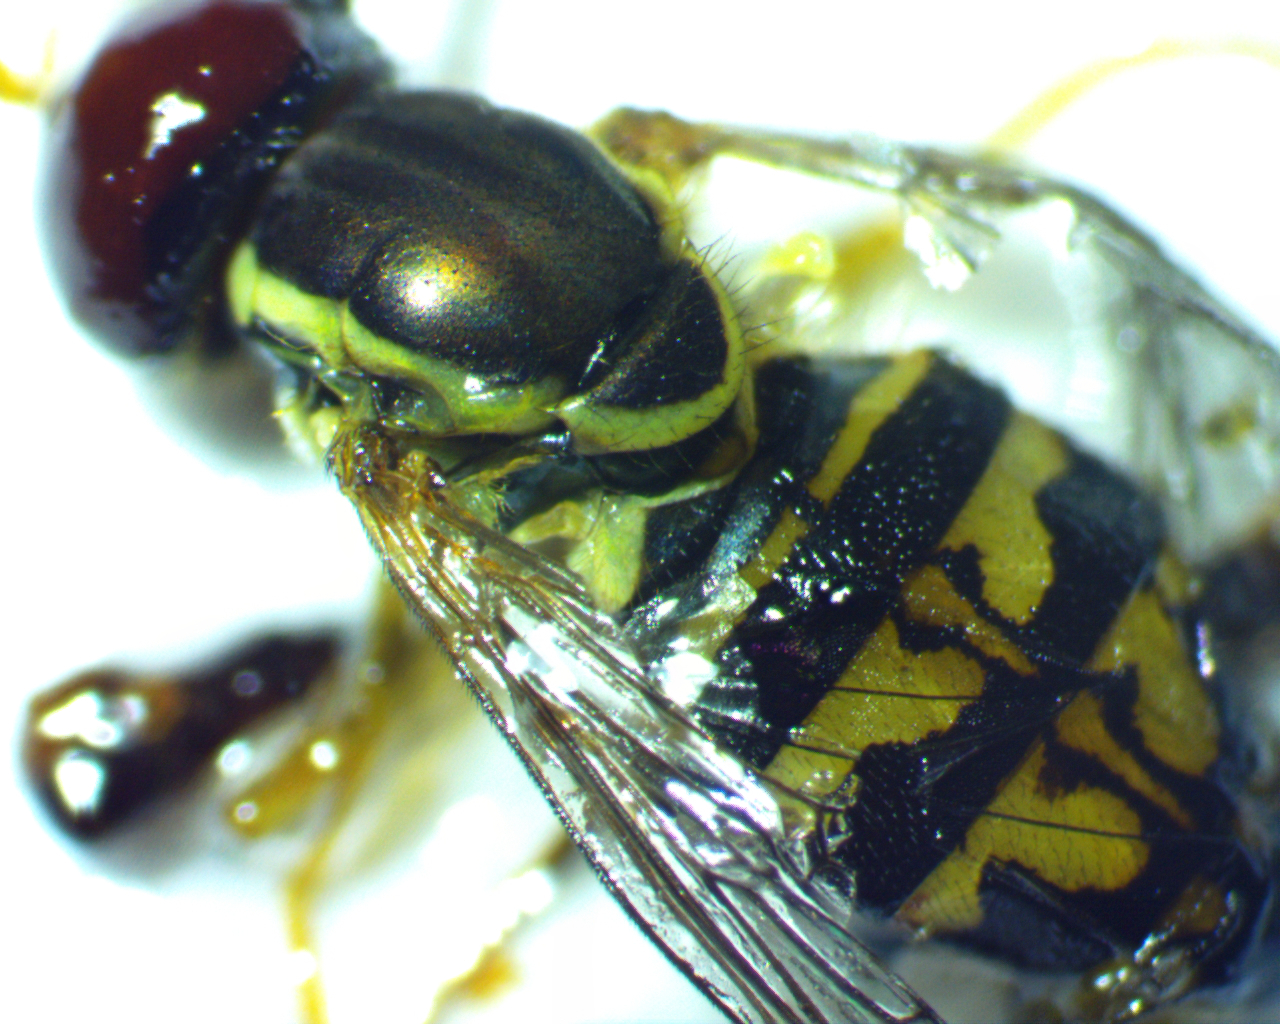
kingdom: Animalia
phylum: Arthropoda
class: Insecta
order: Diptera
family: Syrphidae
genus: Toxomerus
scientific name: Toxomerus geminatus
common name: Eastern calligrapher
